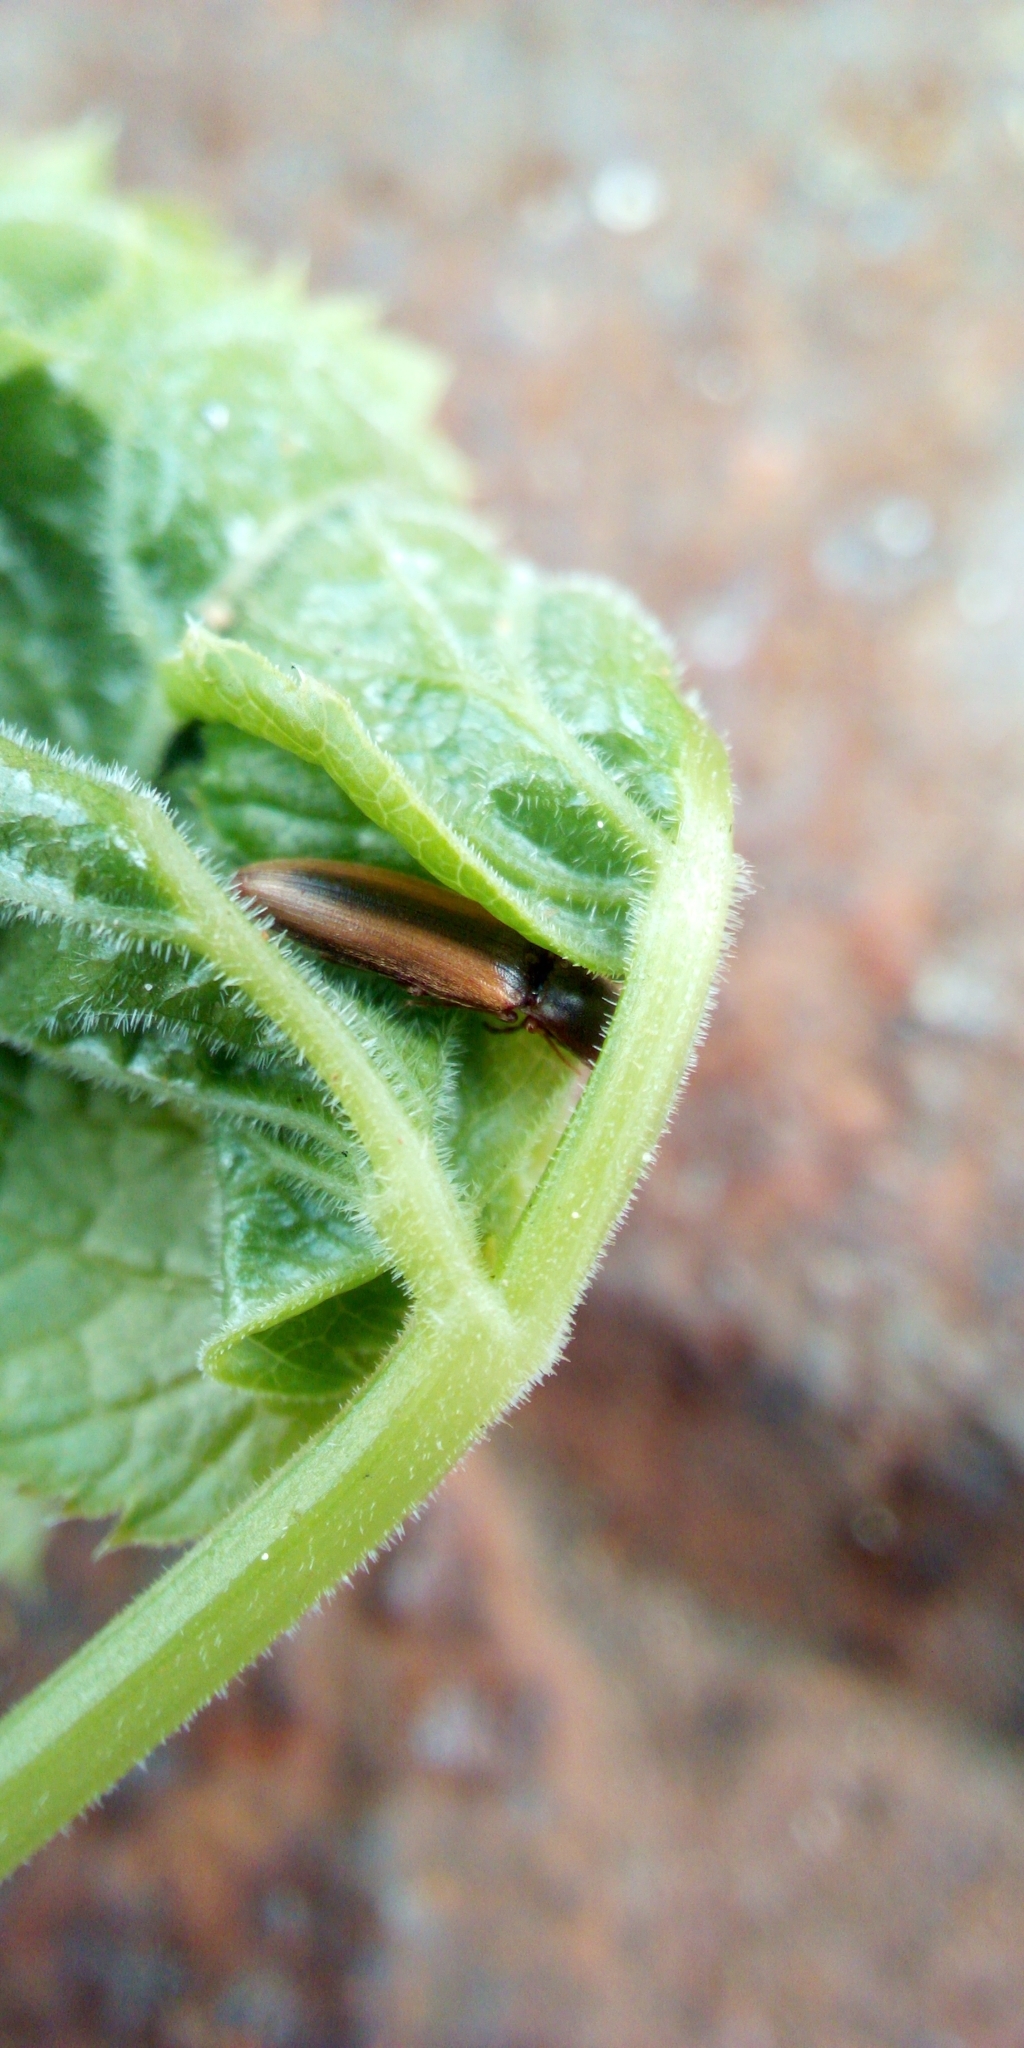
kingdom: Animalia
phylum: Arthropoda
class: Insecta
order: Coleoptera
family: Elateridae
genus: Dalopius
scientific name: Dalopius marginatus
